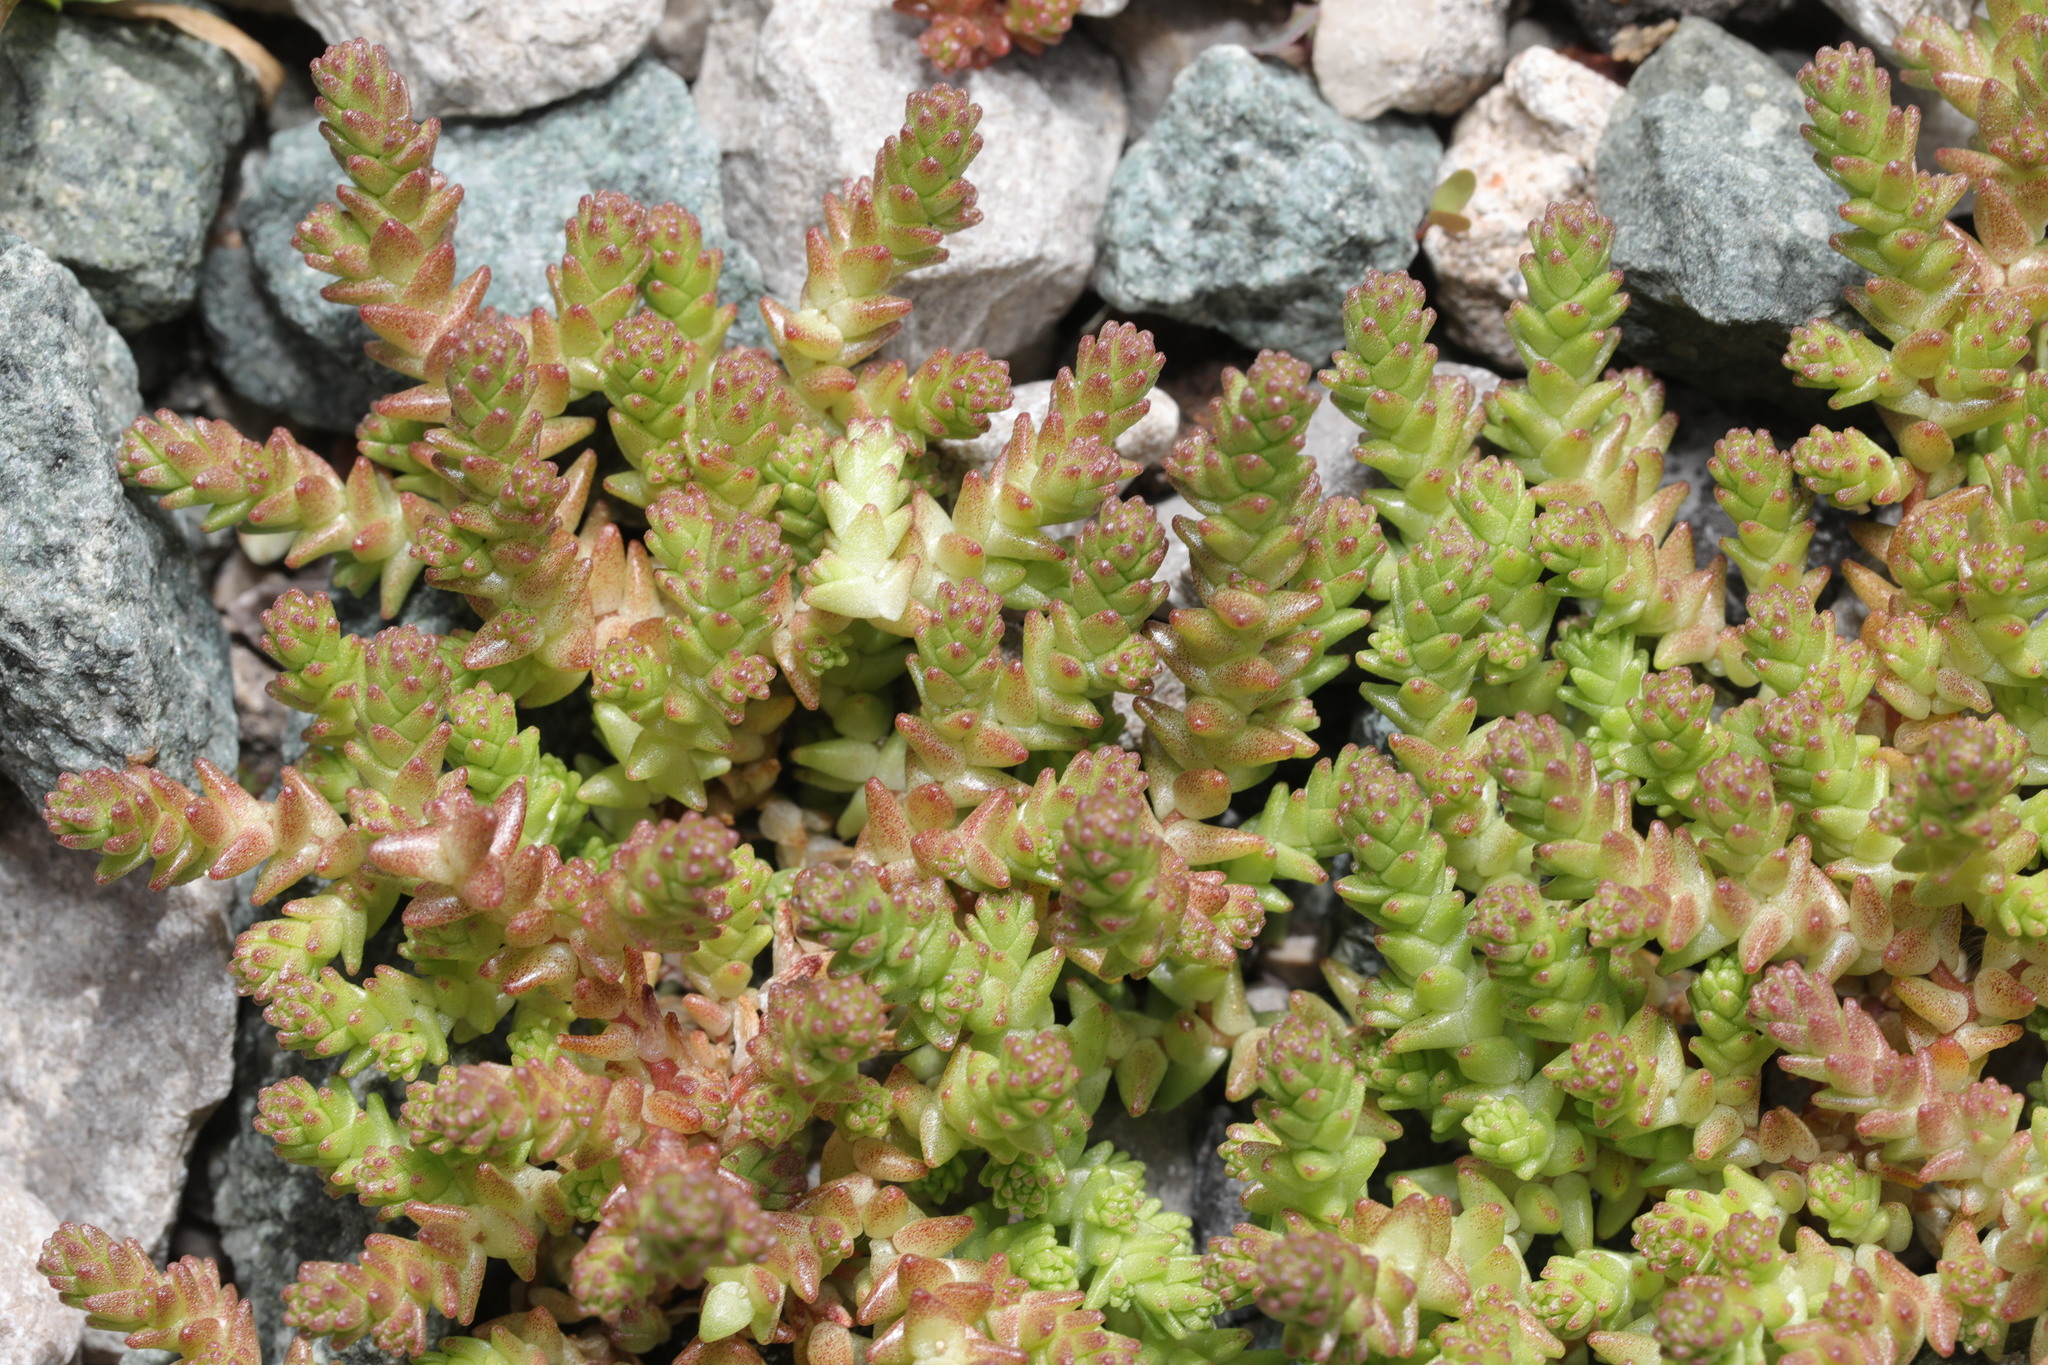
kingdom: Plantae
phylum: Tracheophyta
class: Magnoliopsida
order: Saxifragales
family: Crassulaceae
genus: Sedum
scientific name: Sedum acre
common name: Biting stonecrop
